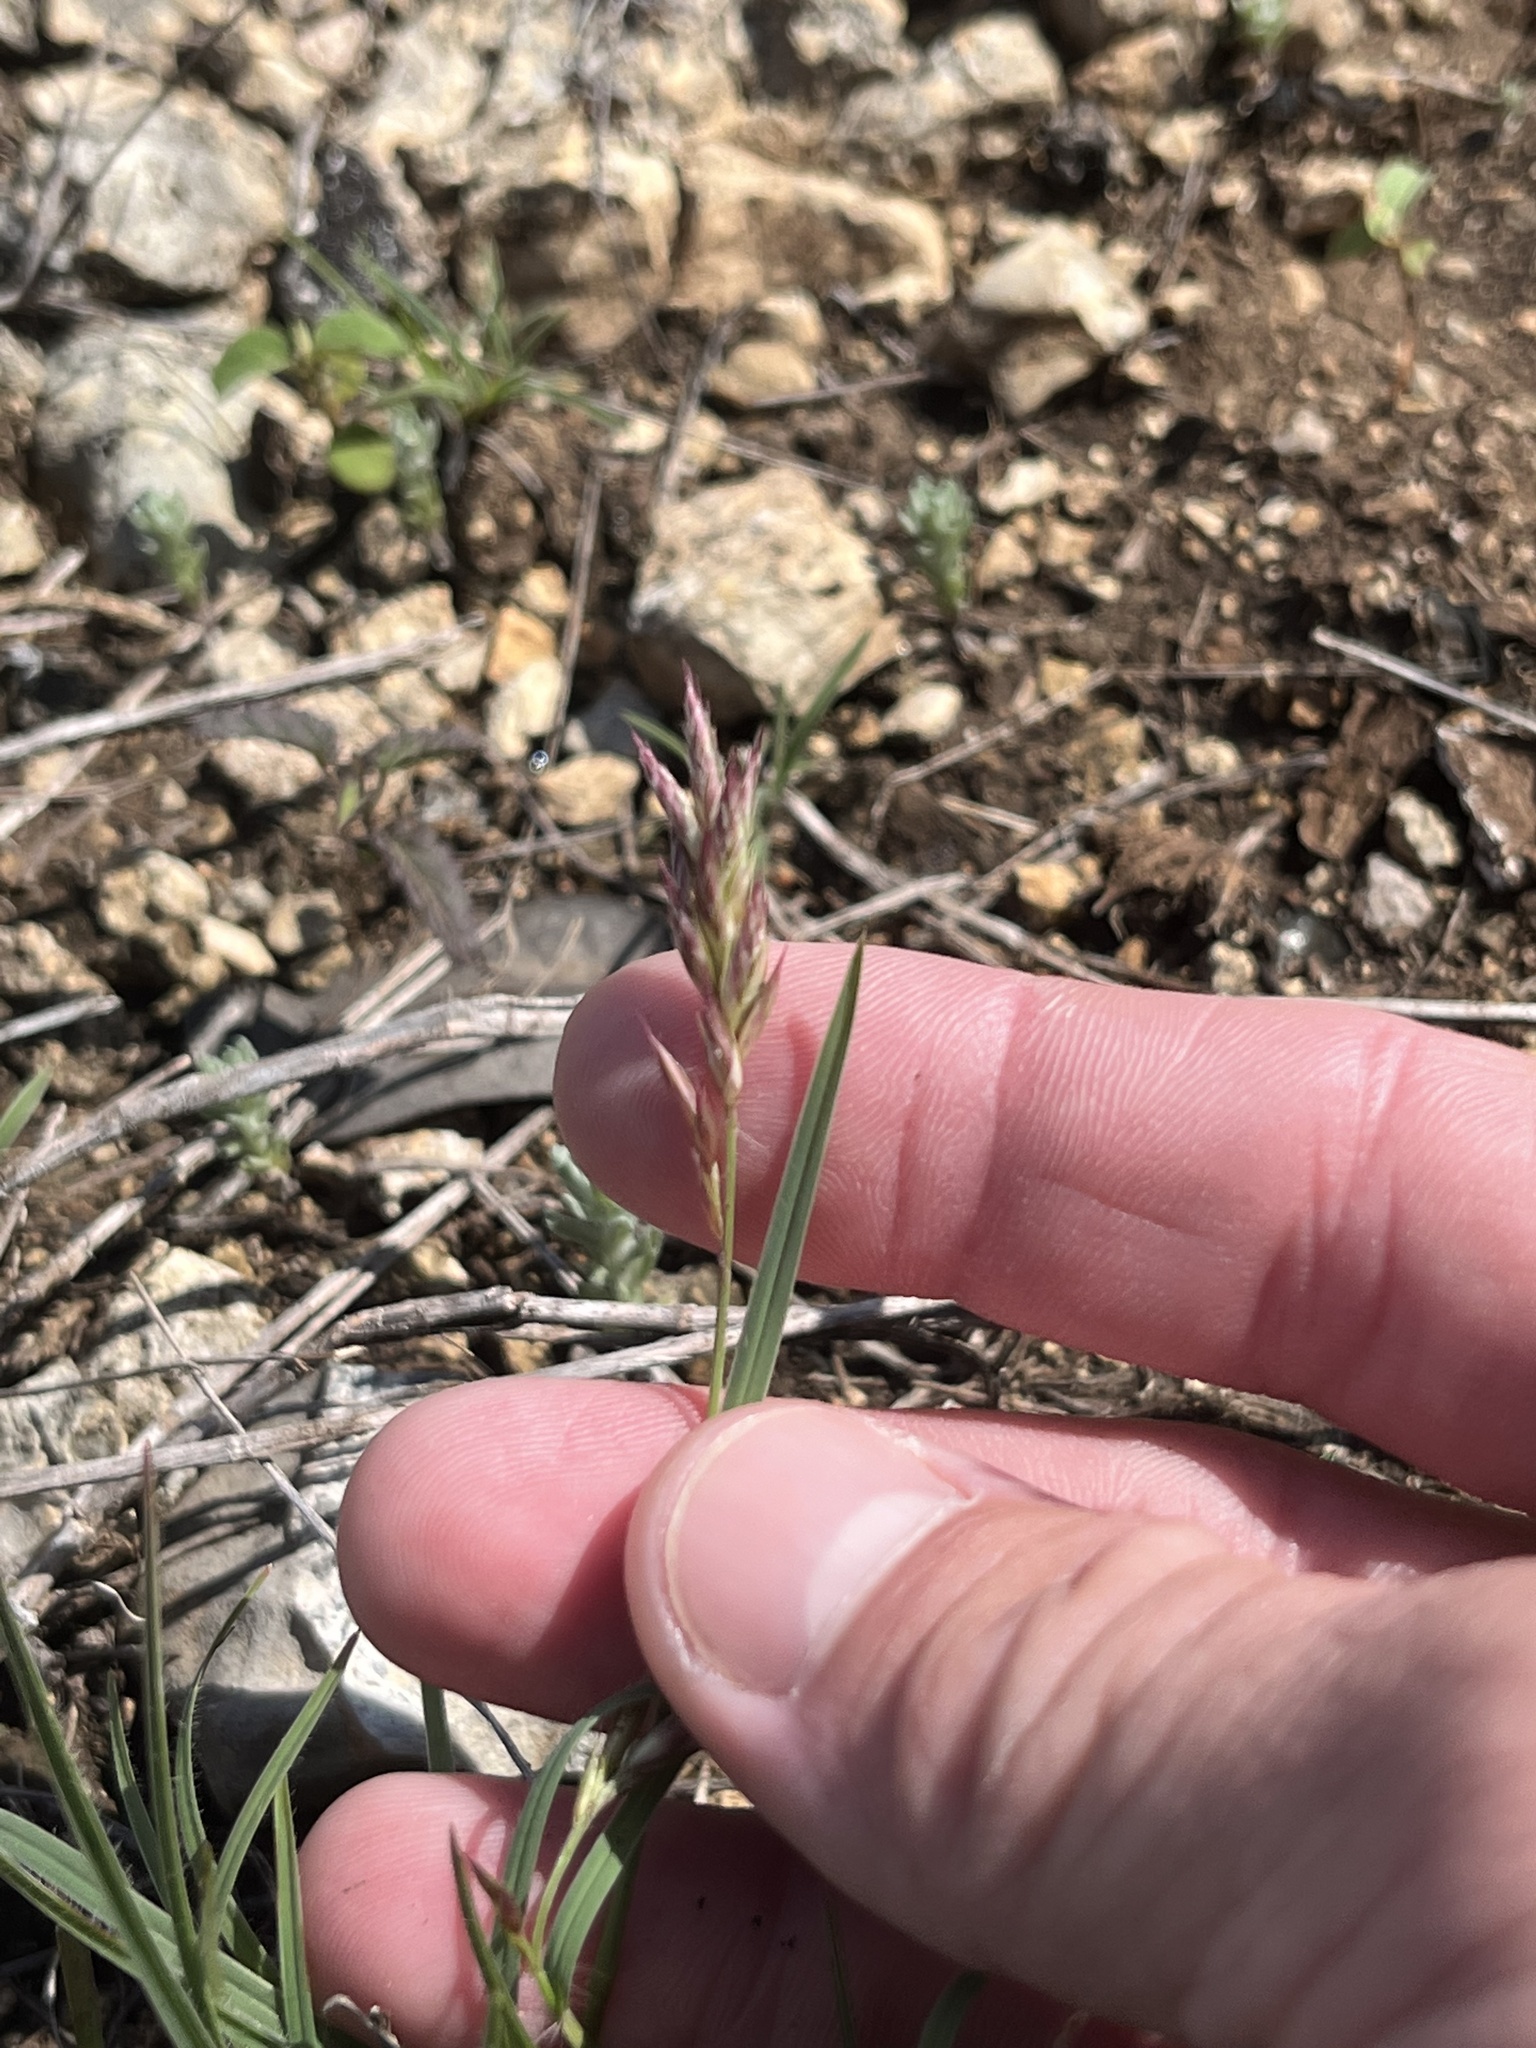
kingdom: Plantae
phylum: Tracheophyta
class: Liliopsida
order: Poales
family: Poaceae
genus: Erioneuron
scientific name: Erioneuron pilosum
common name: Hairy woolly grass
